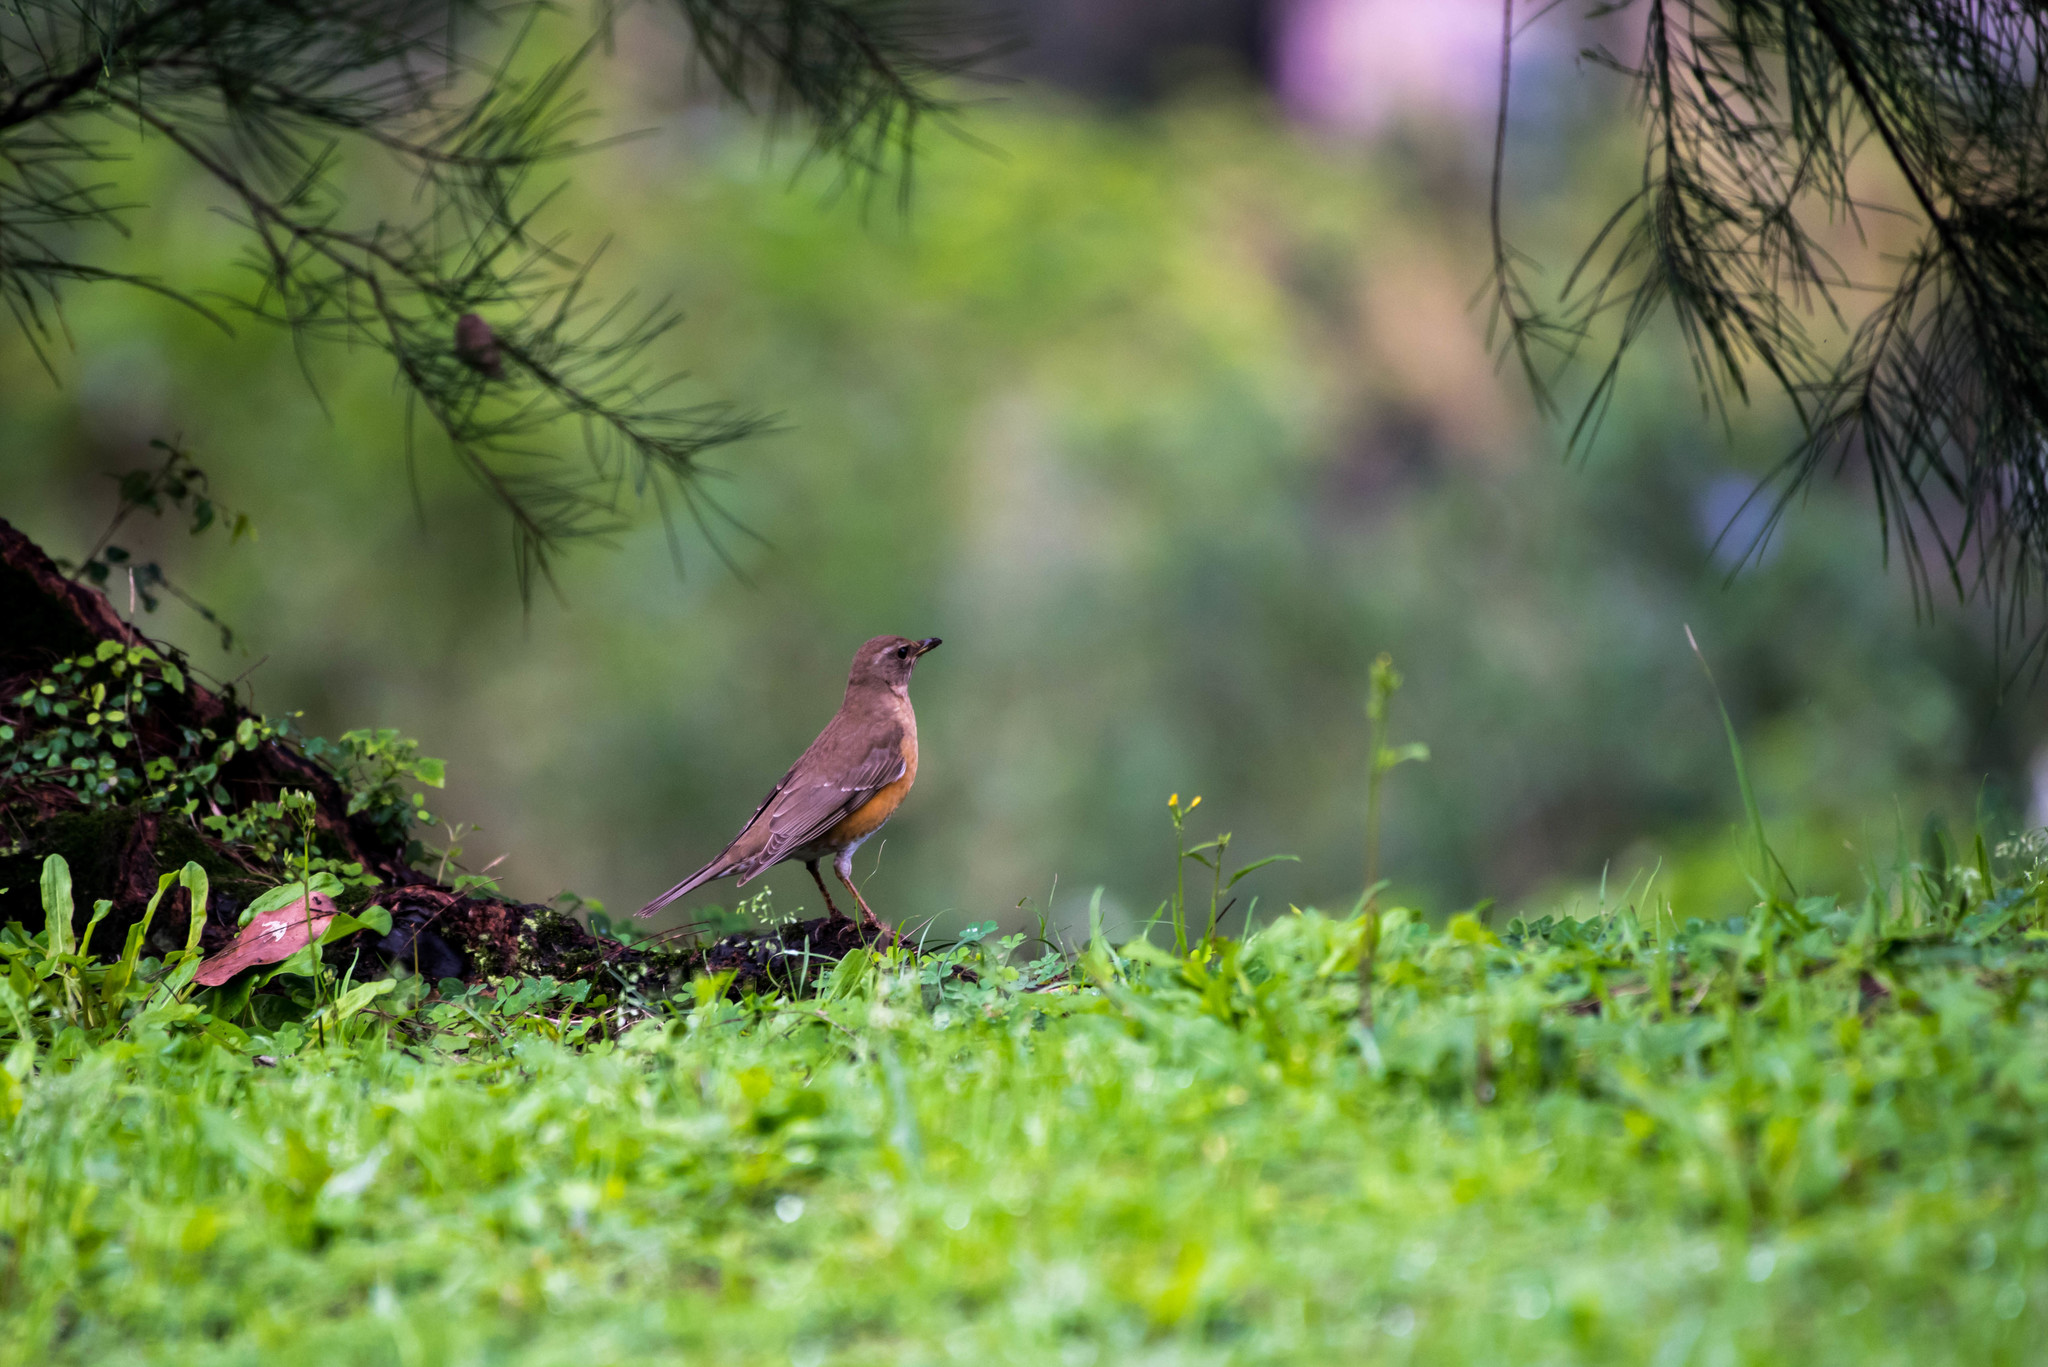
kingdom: Animalia
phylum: Chordata
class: Aves
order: Passeriformes
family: Turdidae
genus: Turdus
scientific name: Turdus chrysolaus
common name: Brown-headed thrush
